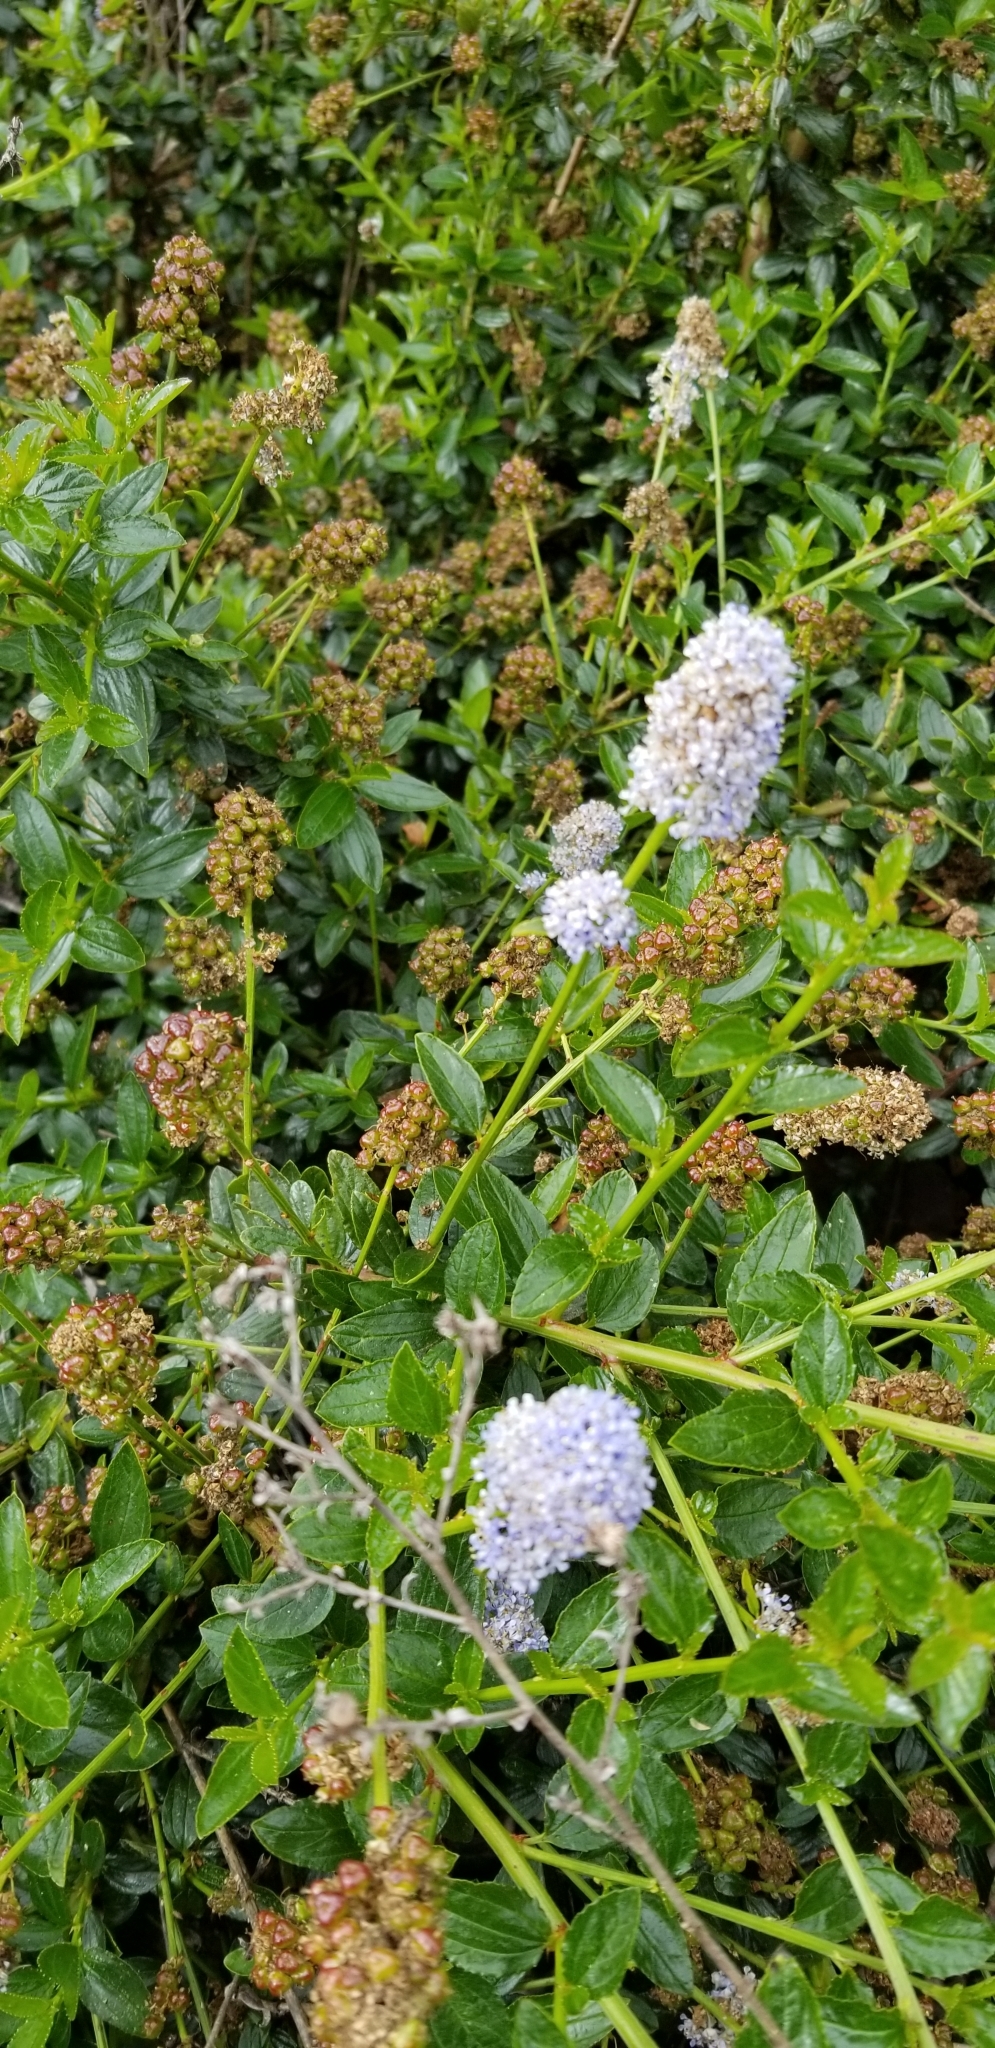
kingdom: Plantae
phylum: Tracheophyta
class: Magnoliopsida
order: Rosales
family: Rhamnaceae
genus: Ceanothus
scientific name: Ceanothus thyrsiflorus
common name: California-lilac
